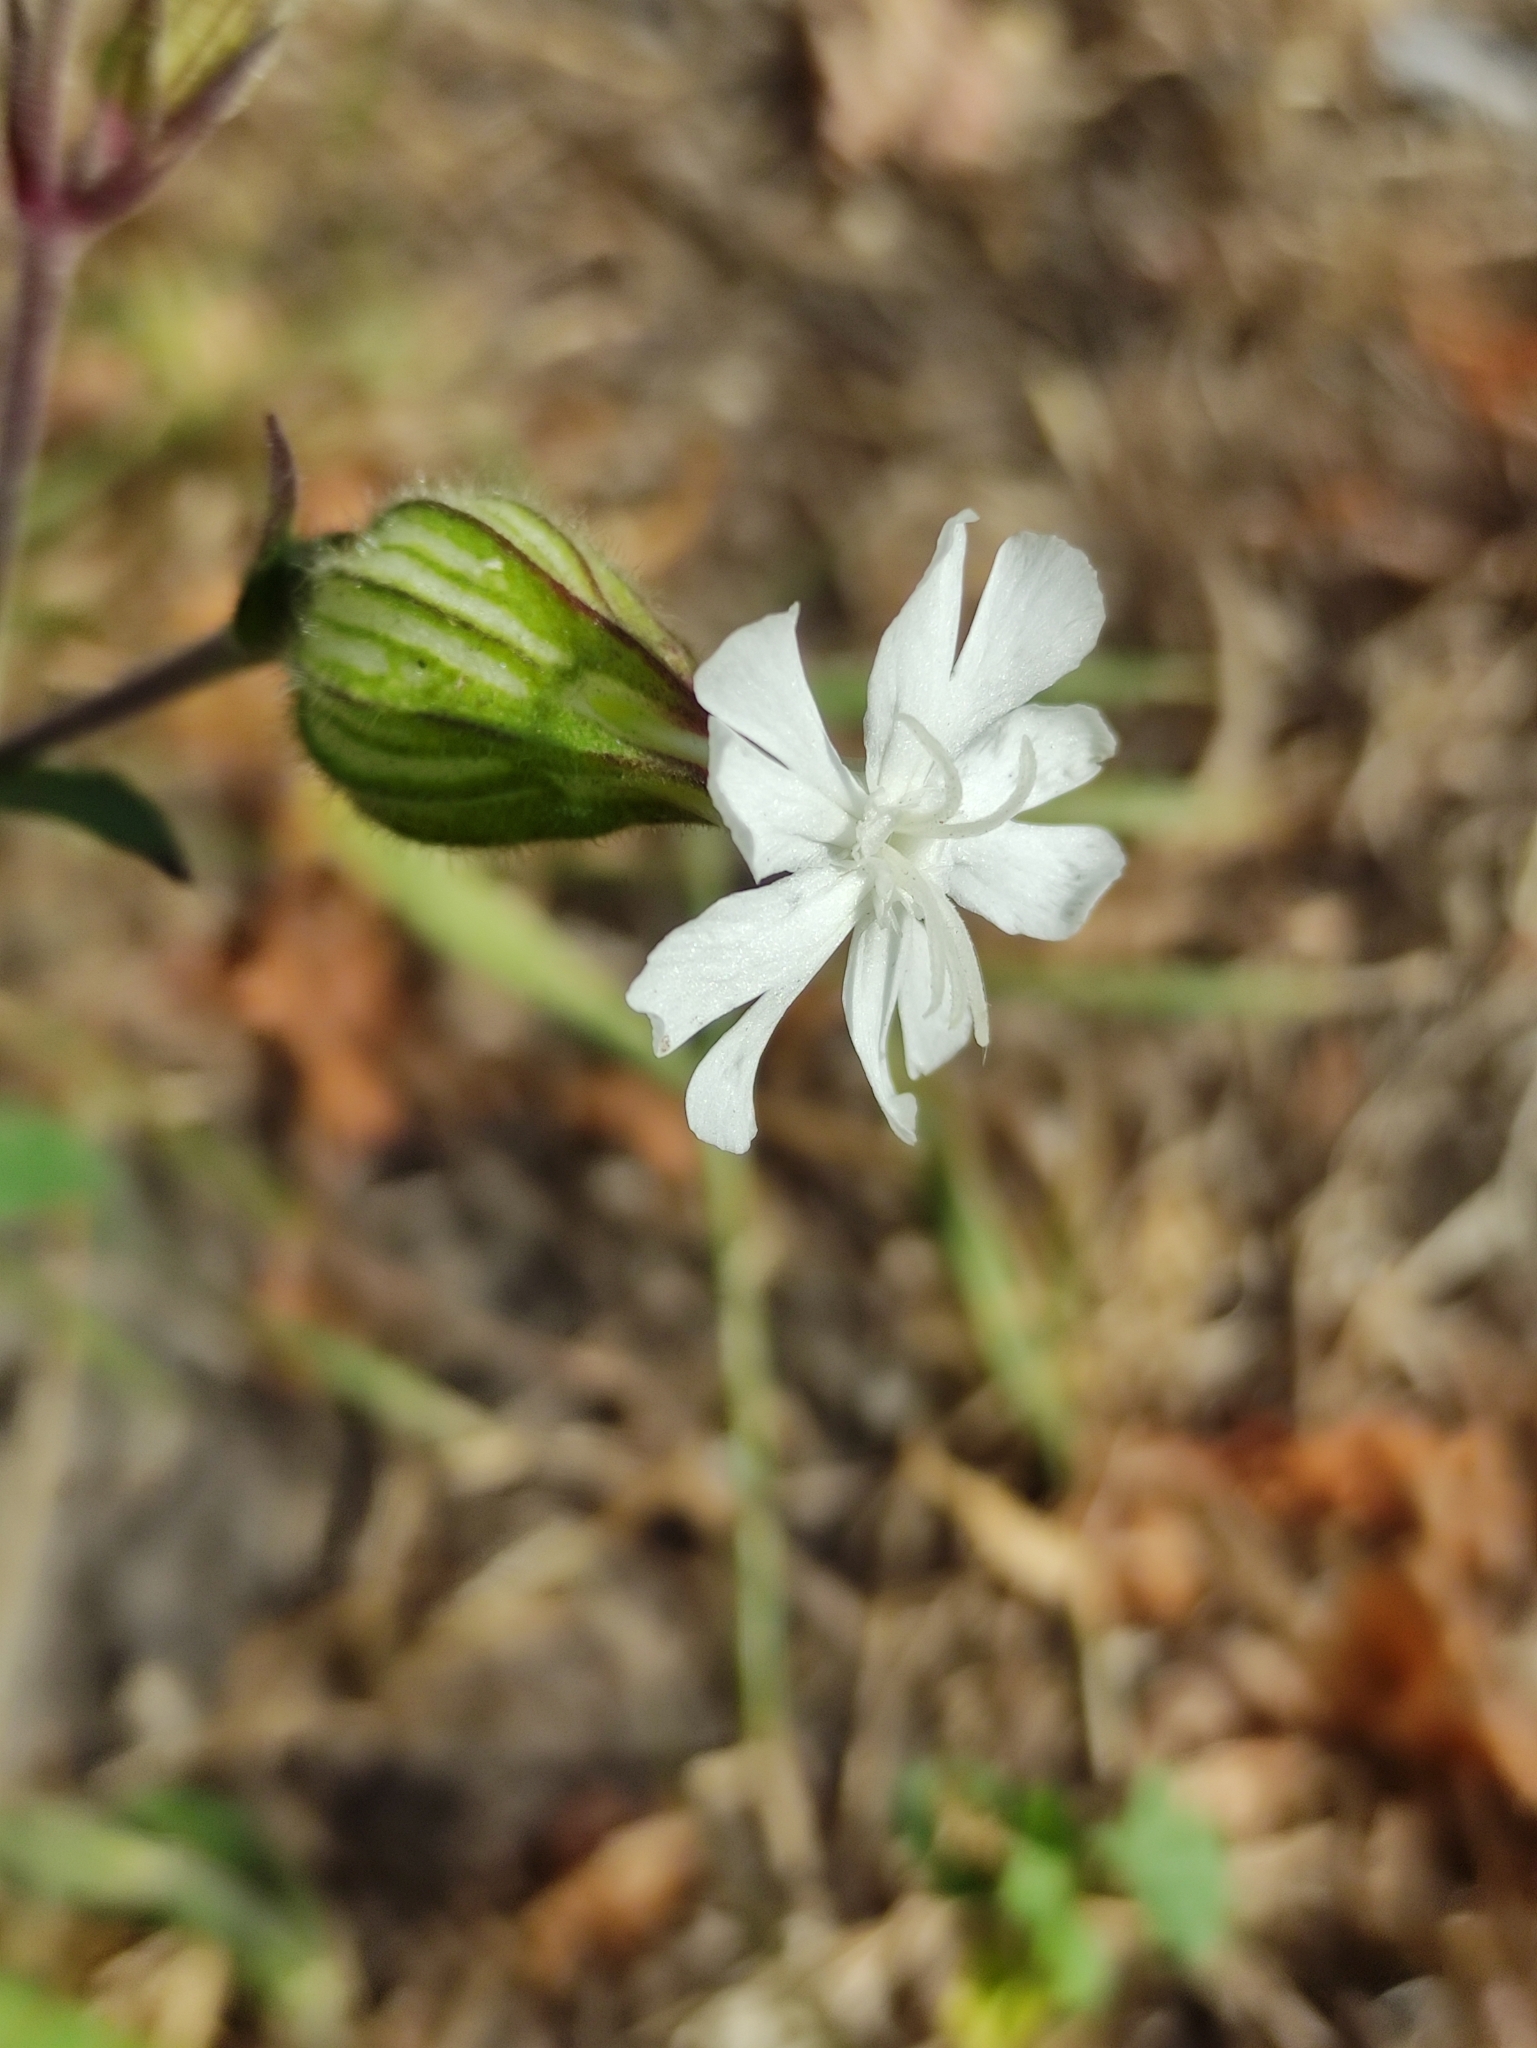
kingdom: Plantae
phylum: Tracheophyta
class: Magnoliopsida
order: Caryophyllales
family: Caryophyllaceae
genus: Silene
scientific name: Silene latifolia
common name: White campion
